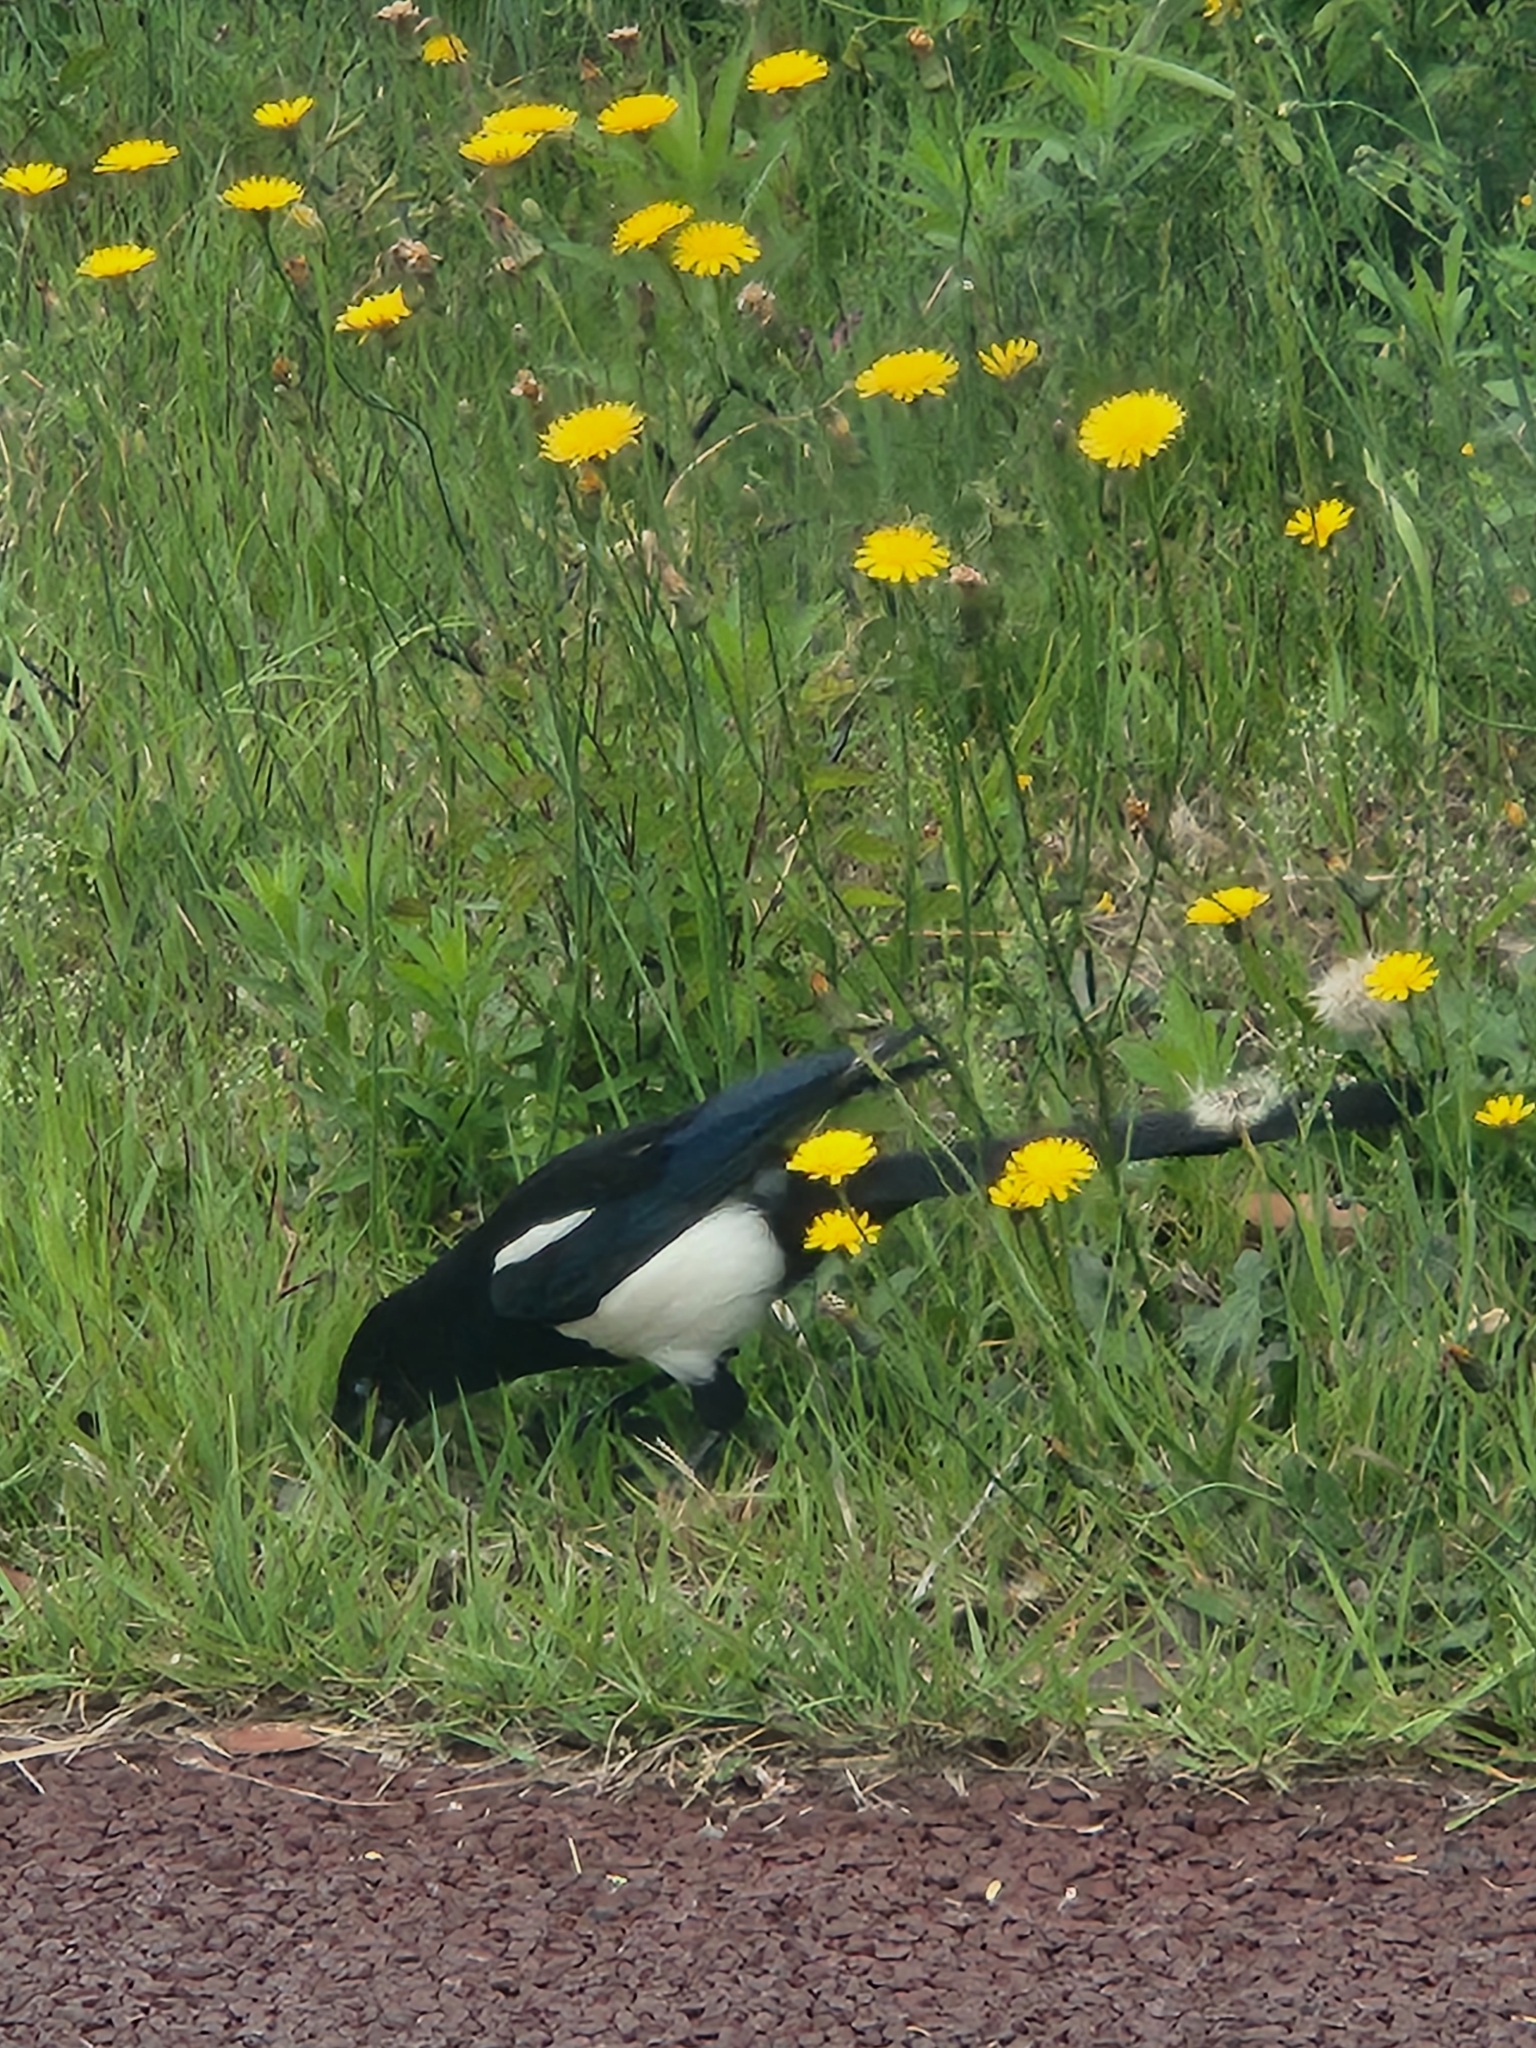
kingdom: Animalia
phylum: Chordata
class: Aves
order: Passeriformes
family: Corvidae
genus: Pica
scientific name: Pica serica
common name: Oriental magpie
